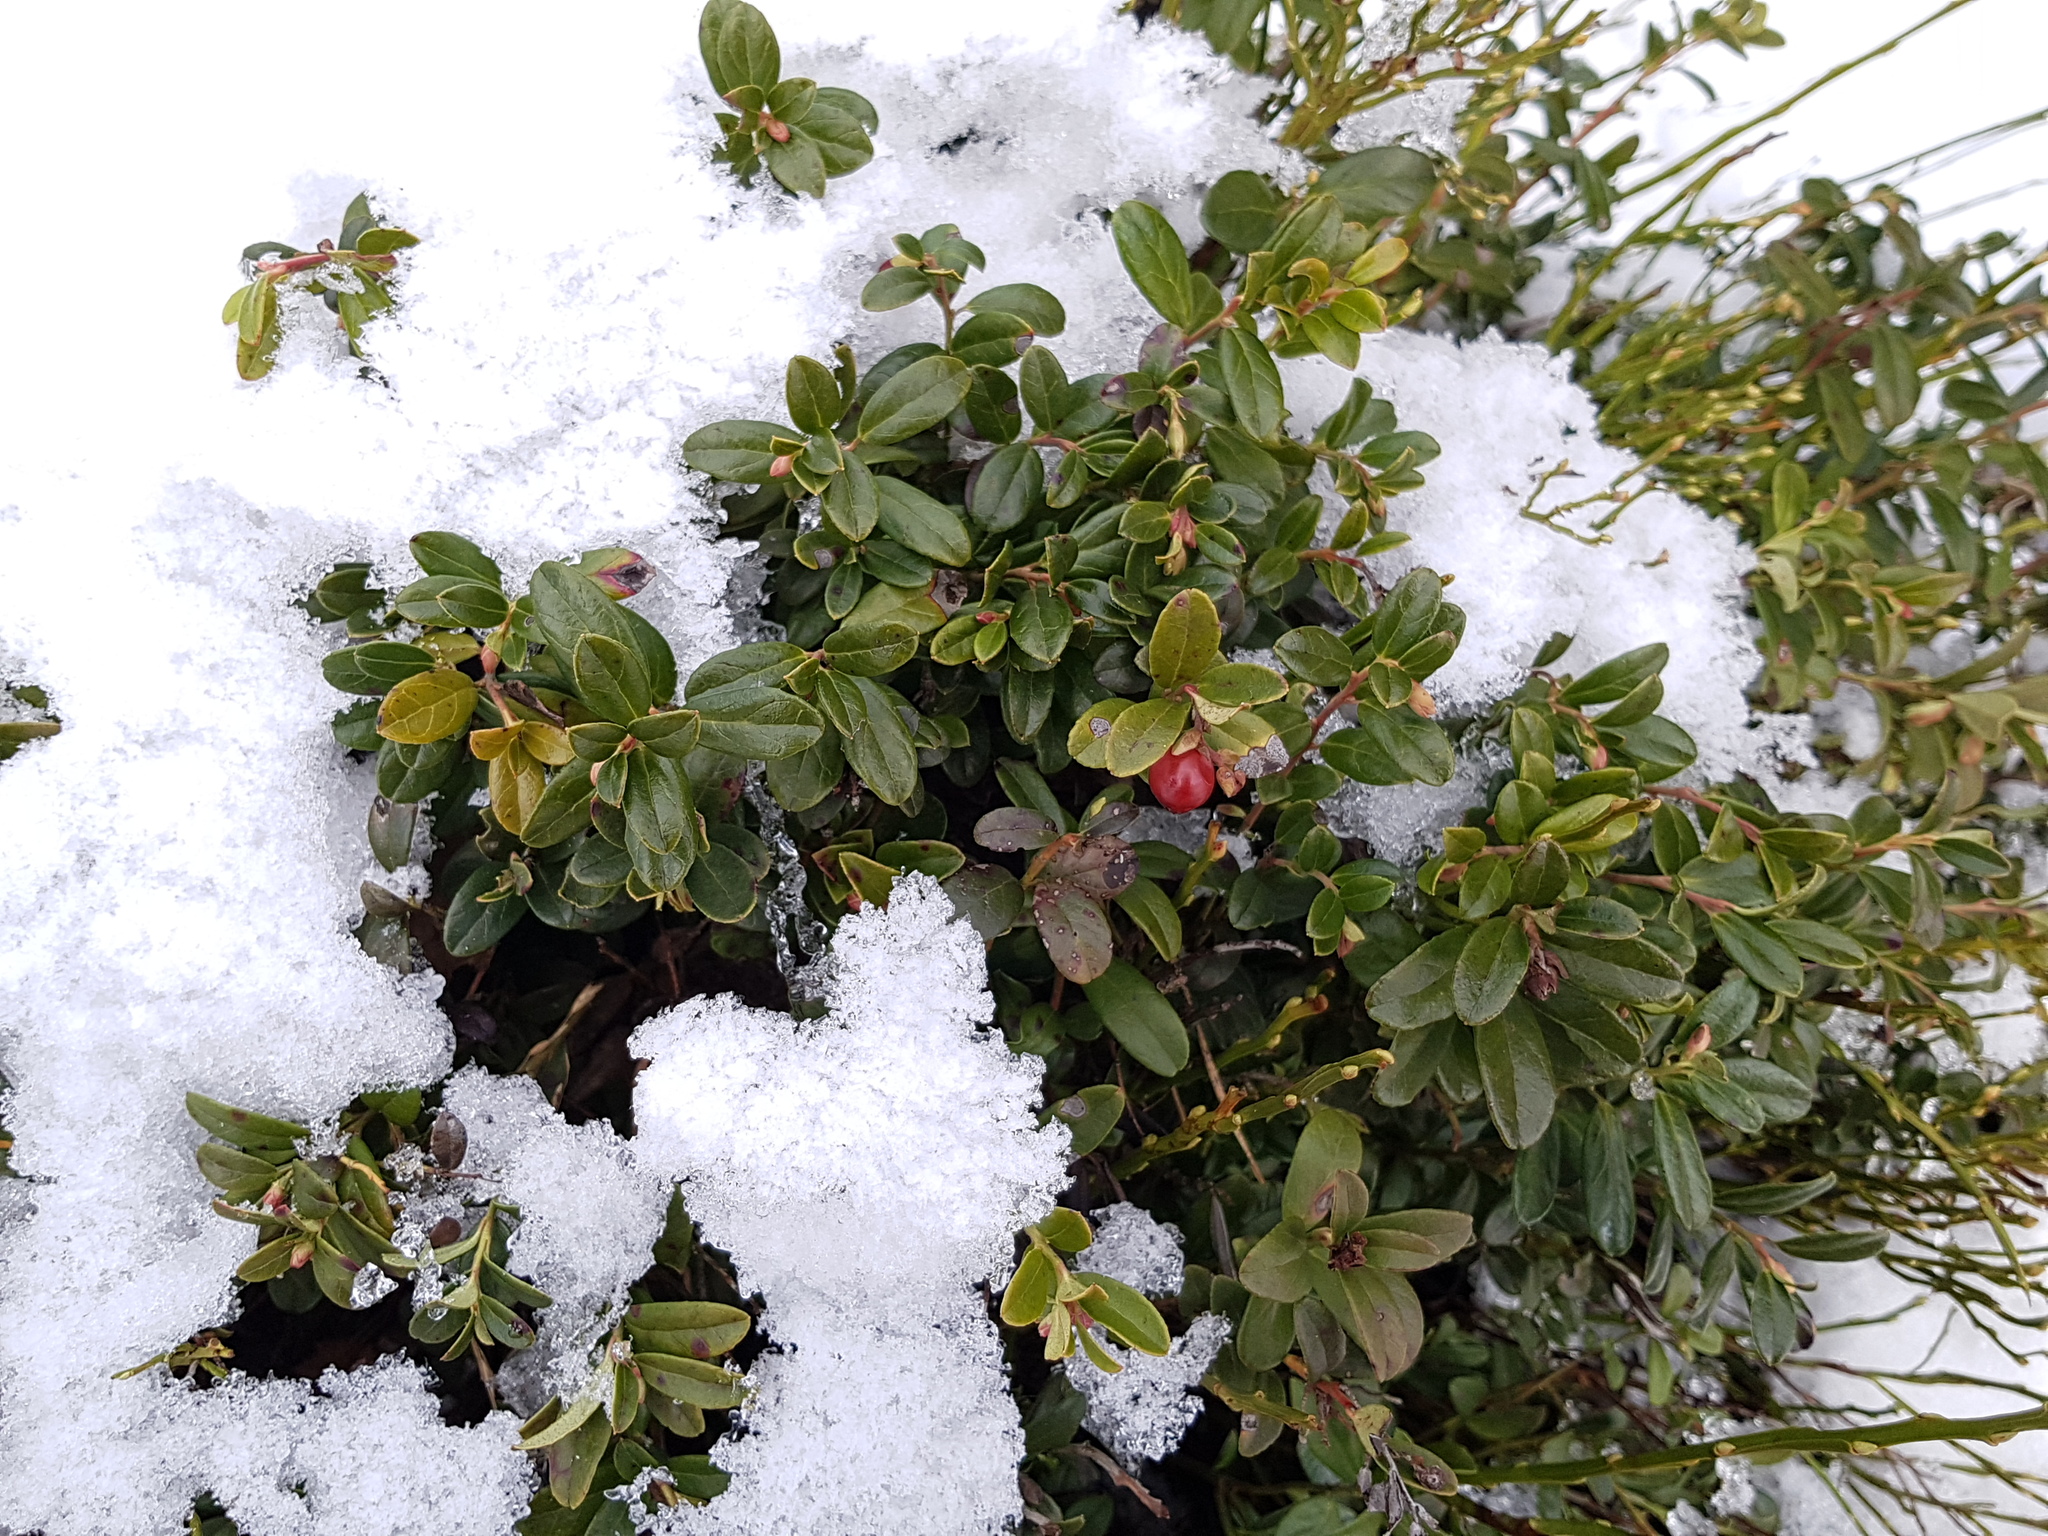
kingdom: Plantae
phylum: Tracheophyta
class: Magnoliopsida
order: Ericales
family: Ericaceae
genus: Vaccinium
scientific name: Vaccinium vitis-idaea
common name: Cowberry
